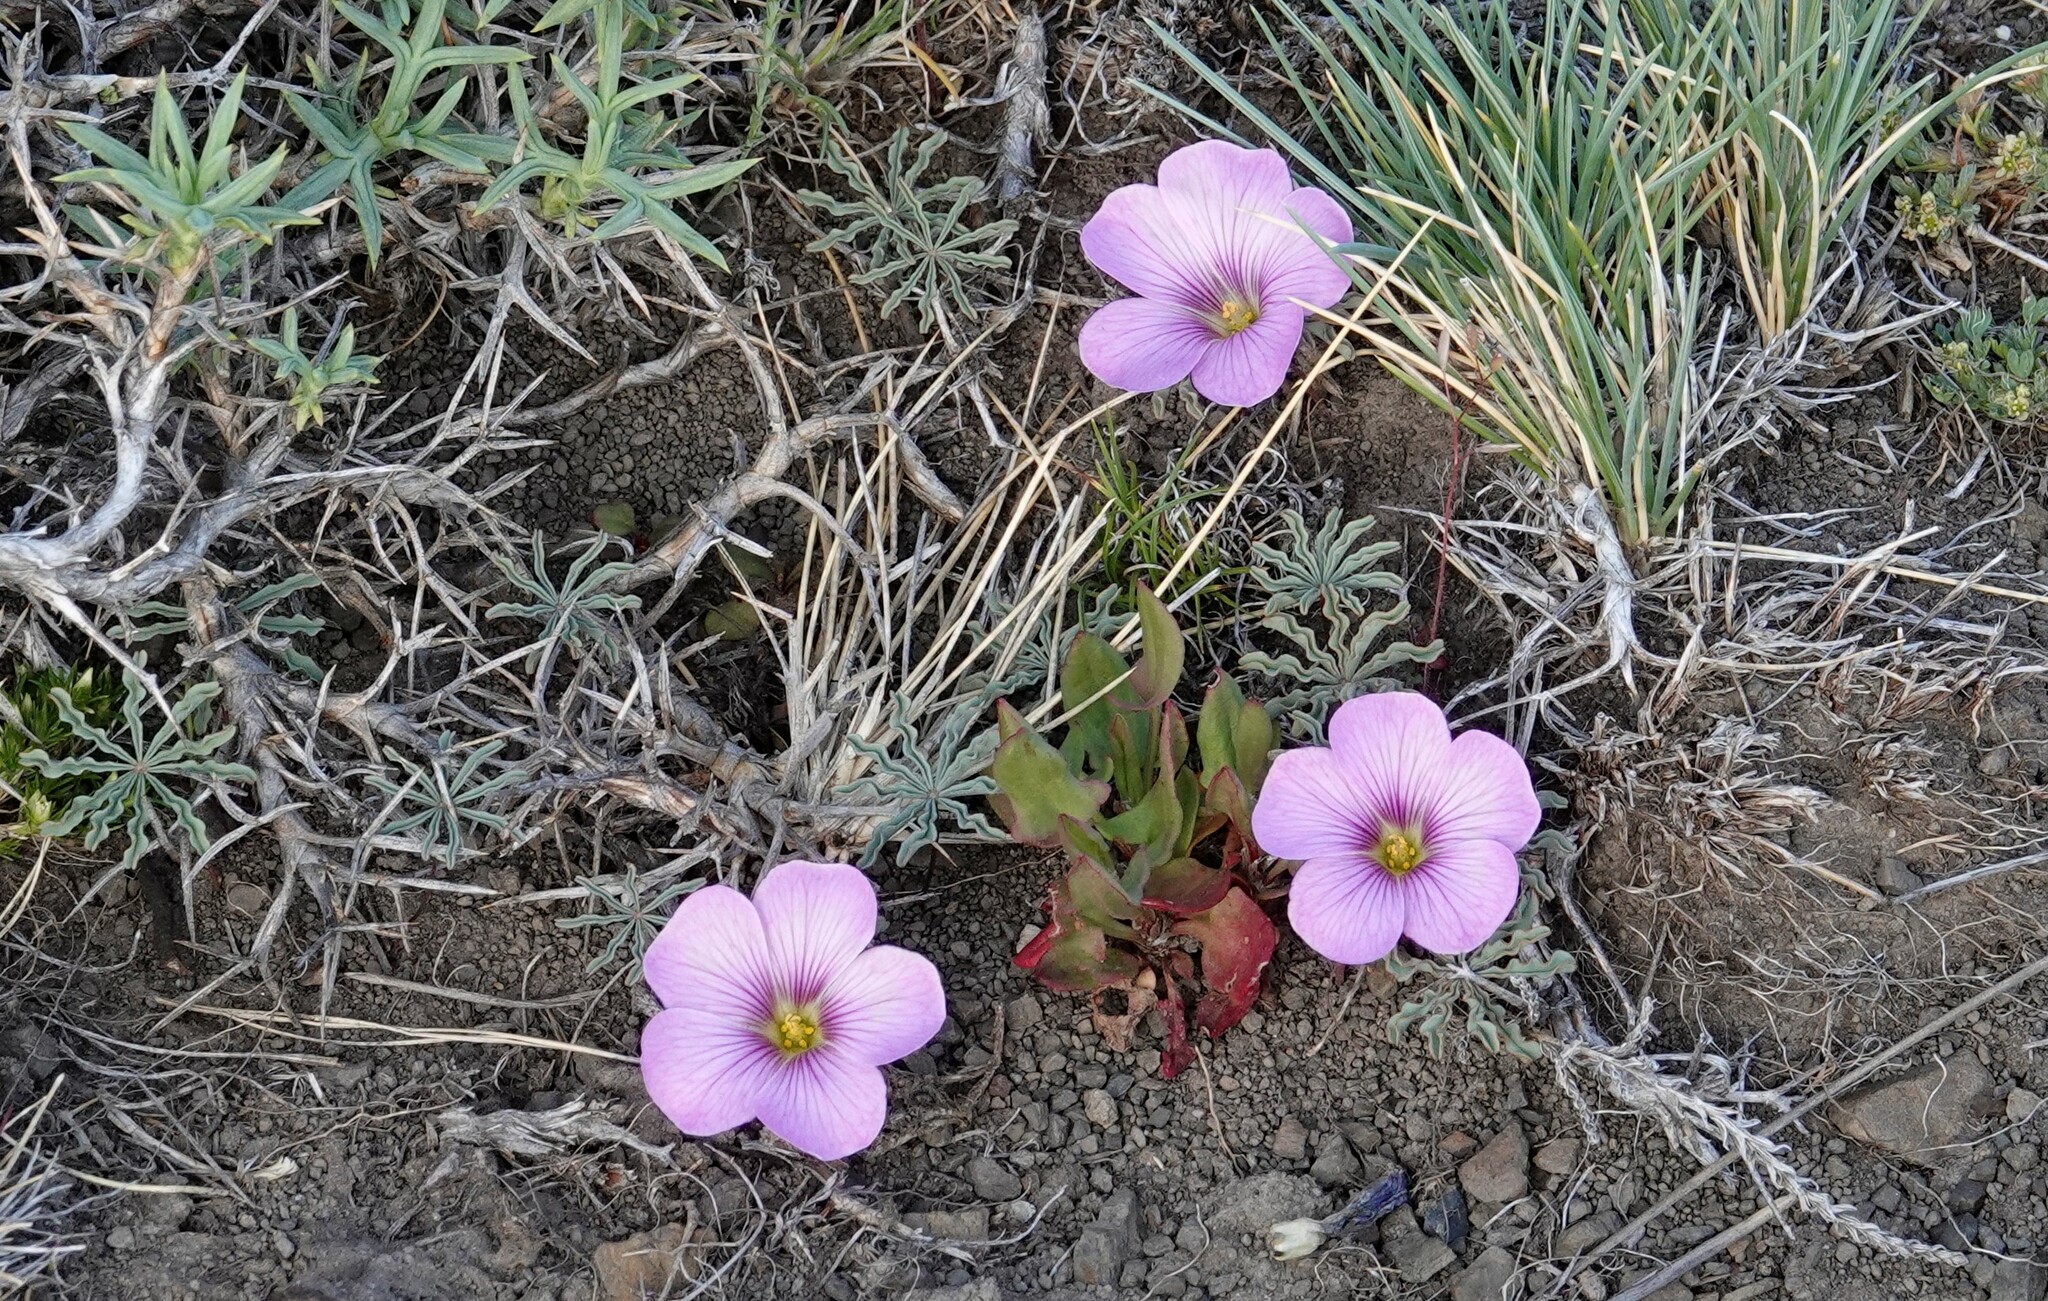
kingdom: Plantae
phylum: Tracheophyta
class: Magnoliopsida
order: Oxalidales
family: Oxalidaceae
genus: Oxalis
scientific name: Oxalis laciniata
